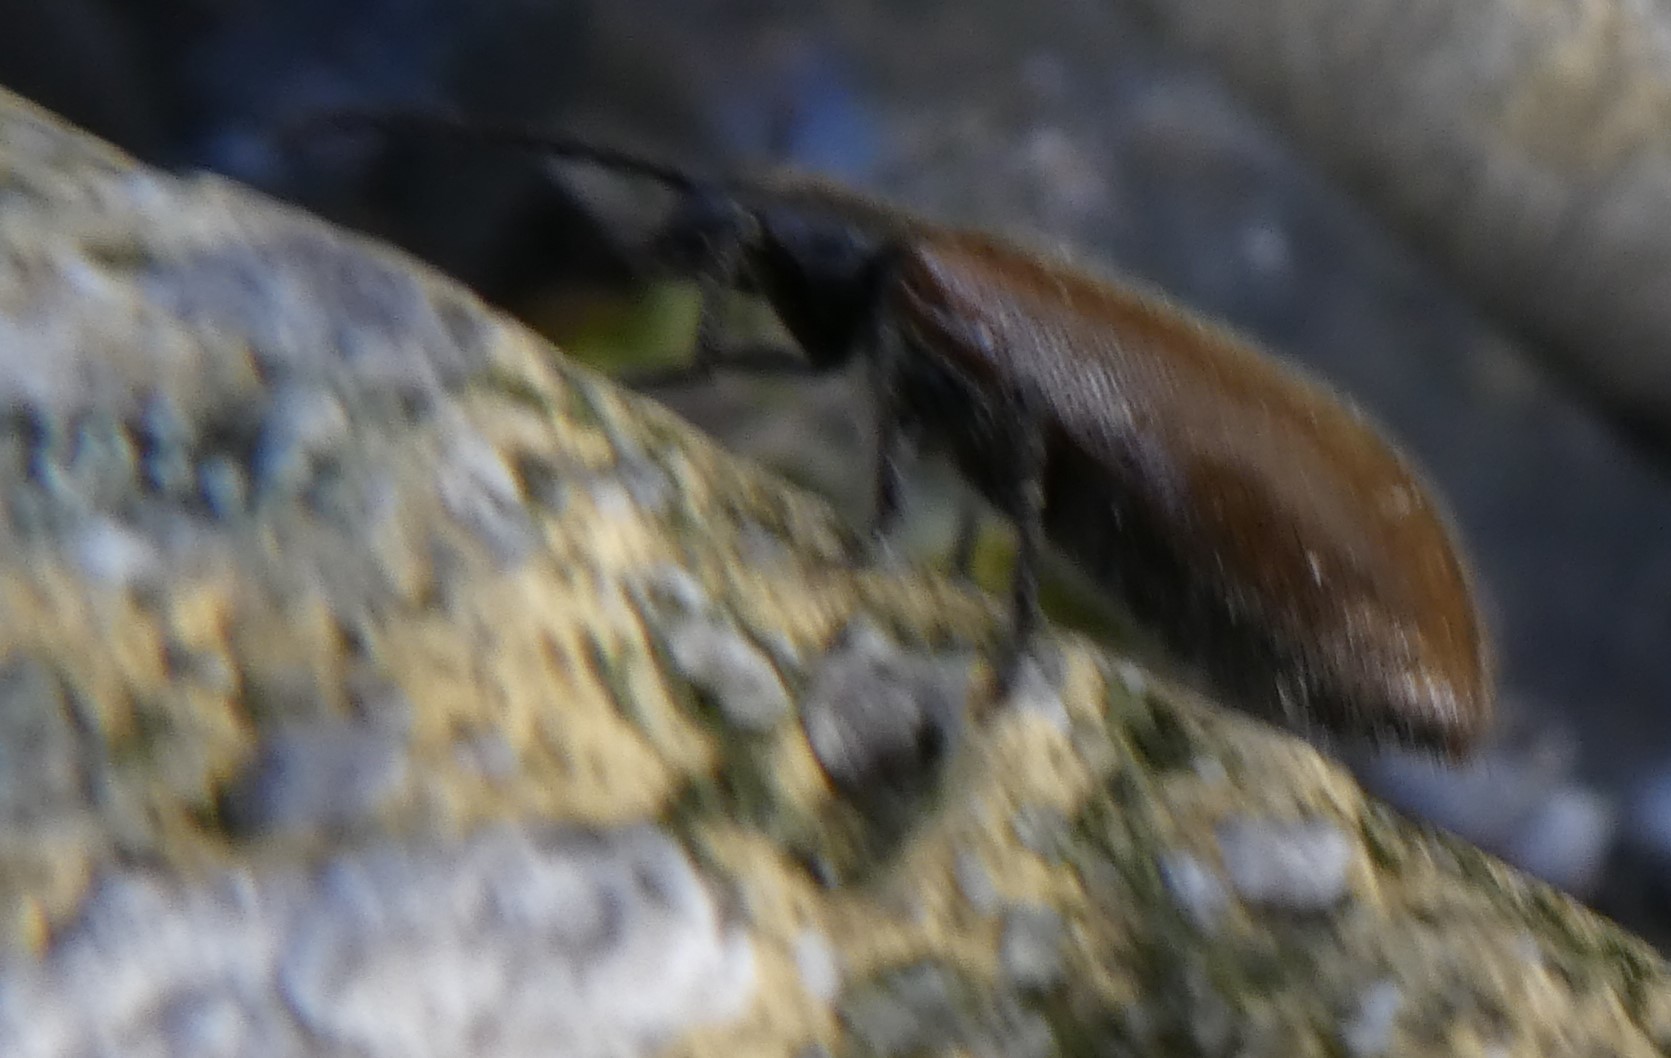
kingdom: Animalia
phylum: Arthropoda
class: Insecta
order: Coleoptera
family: Tenebrionidae
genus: Lagria
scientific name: Lagria hirta
